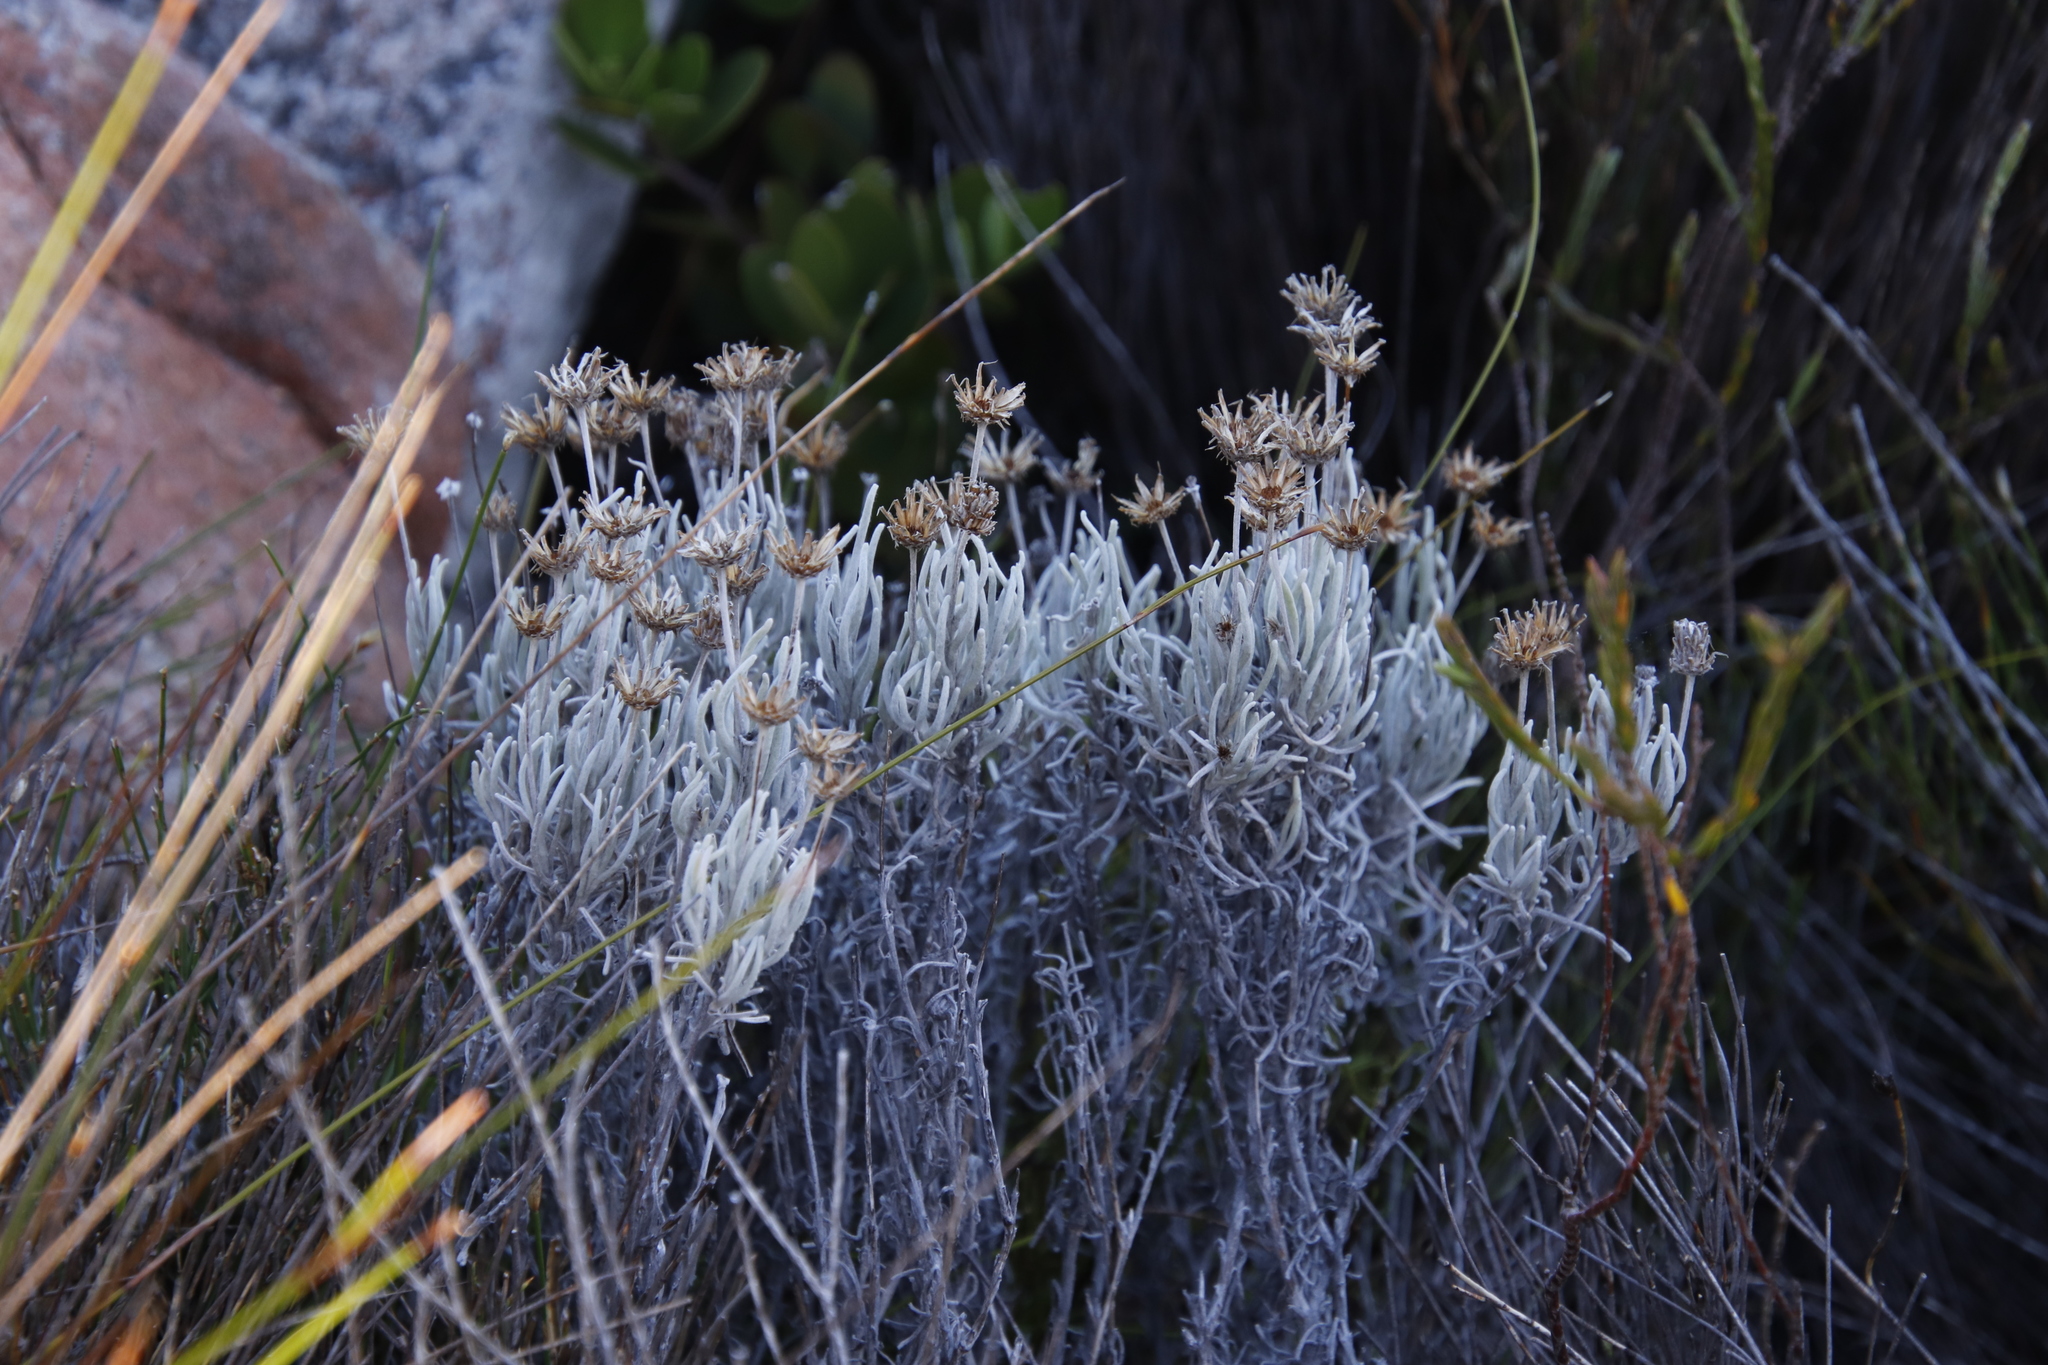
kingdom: Plantae
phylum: Tracheophyta
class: Magnoliopsida
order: Asterales
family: Asteraceae
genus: Syncarpha
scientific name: Syncarpha gnaphaloides
